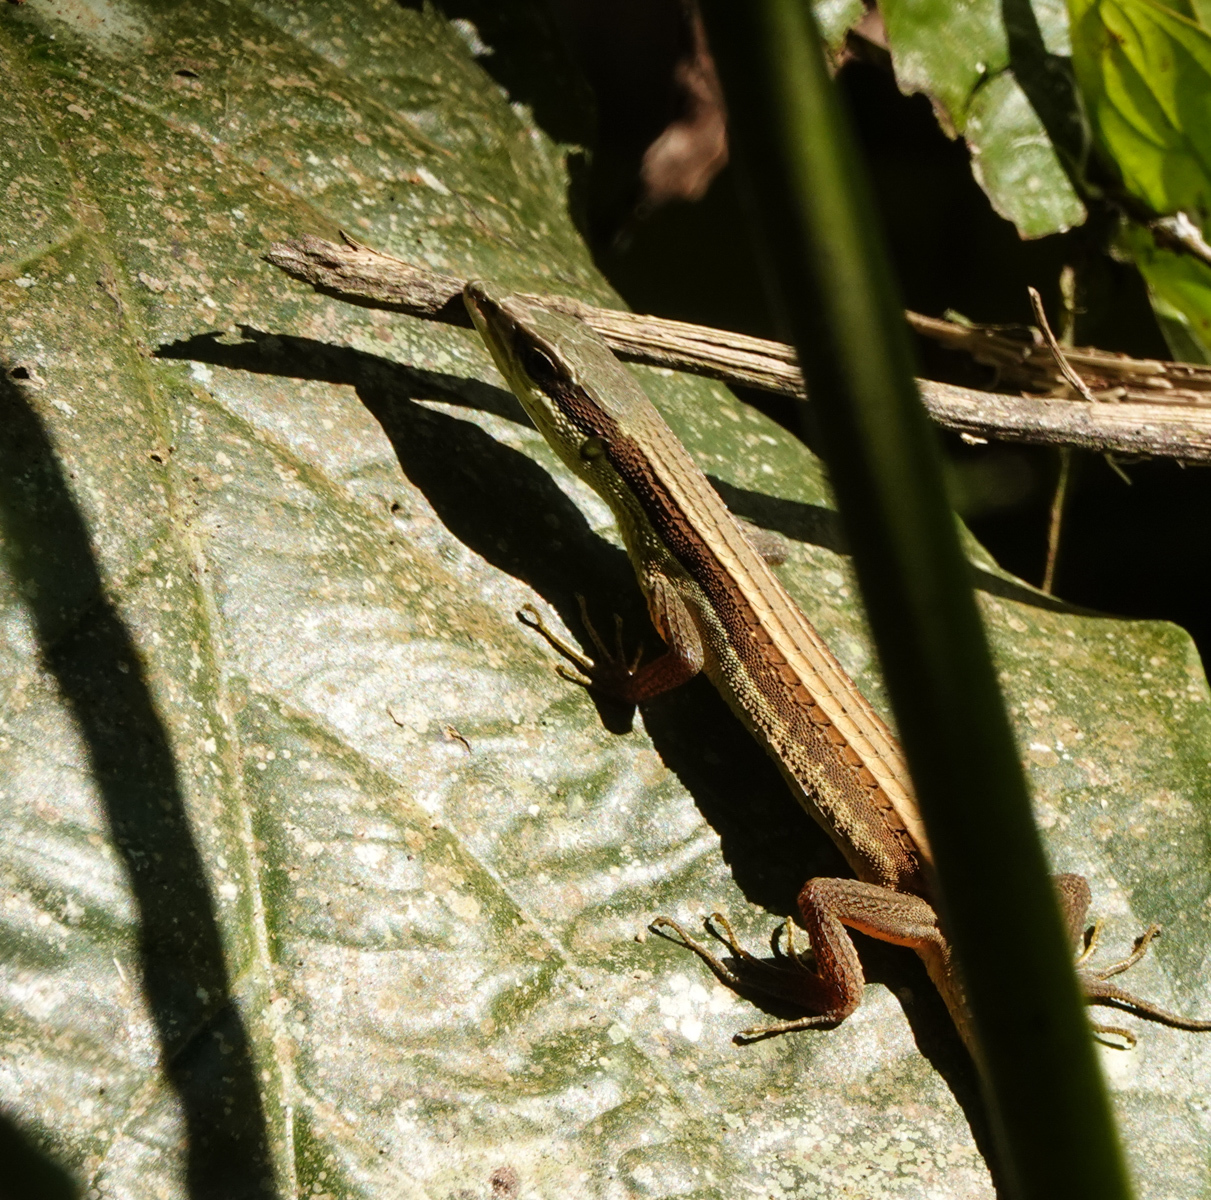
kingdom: Animalia
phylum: Chordata
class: Squamata
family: Lacertidae
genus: Takydromus
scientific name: Takydromus sexlineatus
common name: Asian grass lizard
